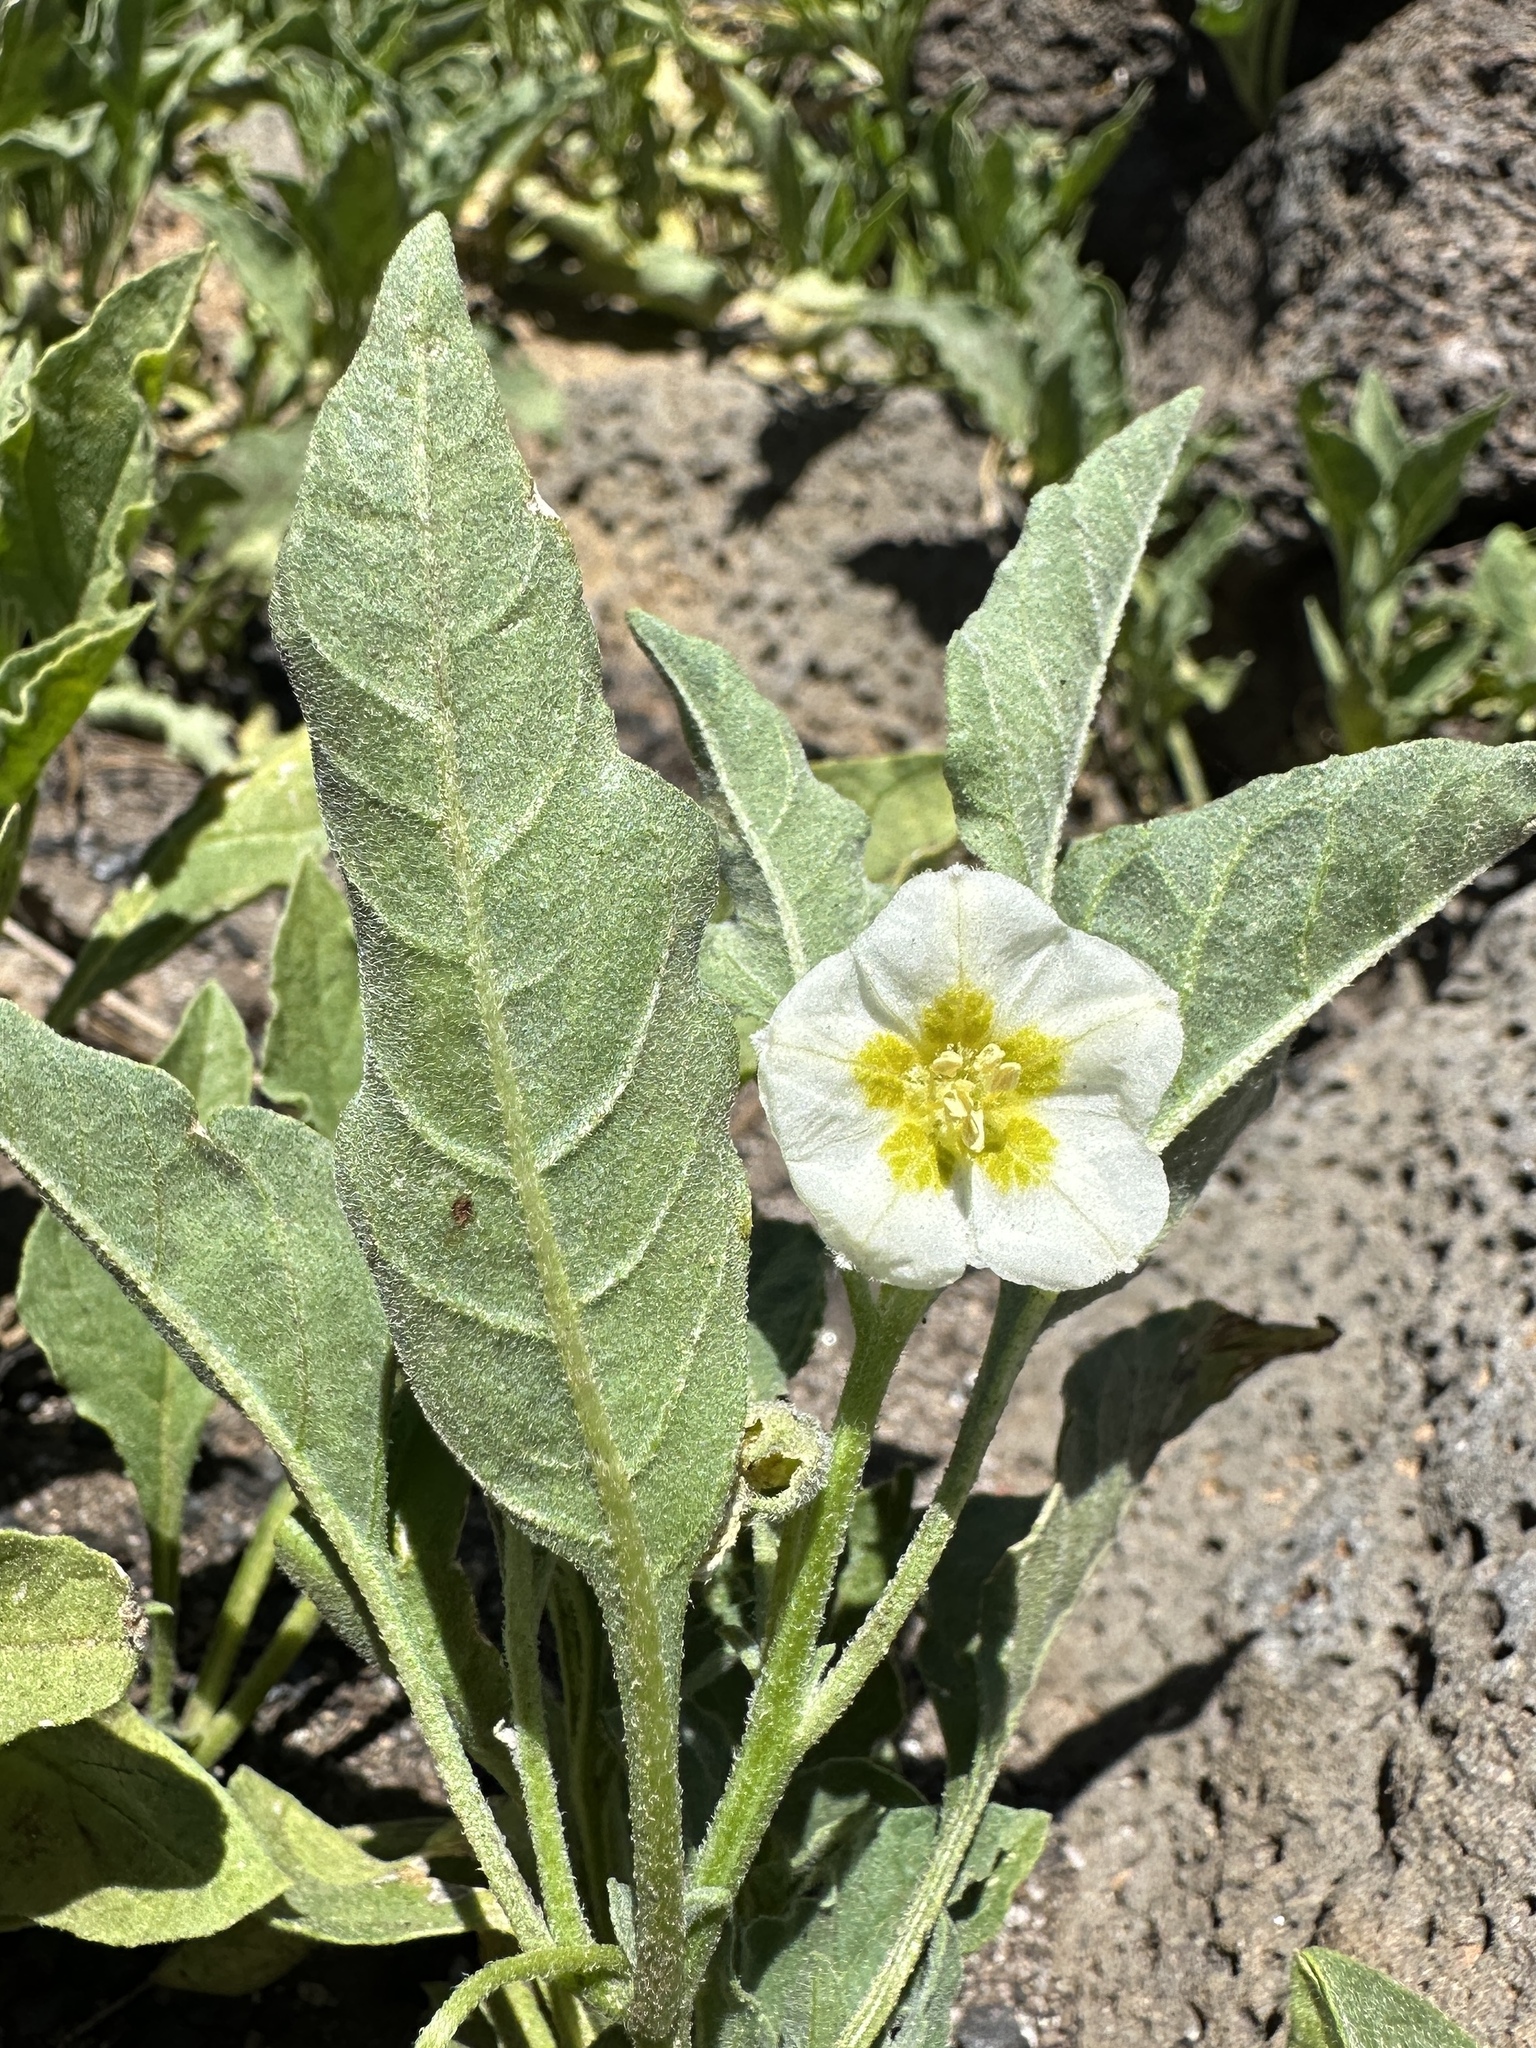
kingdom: Plantae
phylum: Tracheophyta
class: Magnoliopsida
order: Solanales
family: Solanaceae
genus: Leucophysalis
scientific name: Leucophysalis nana
